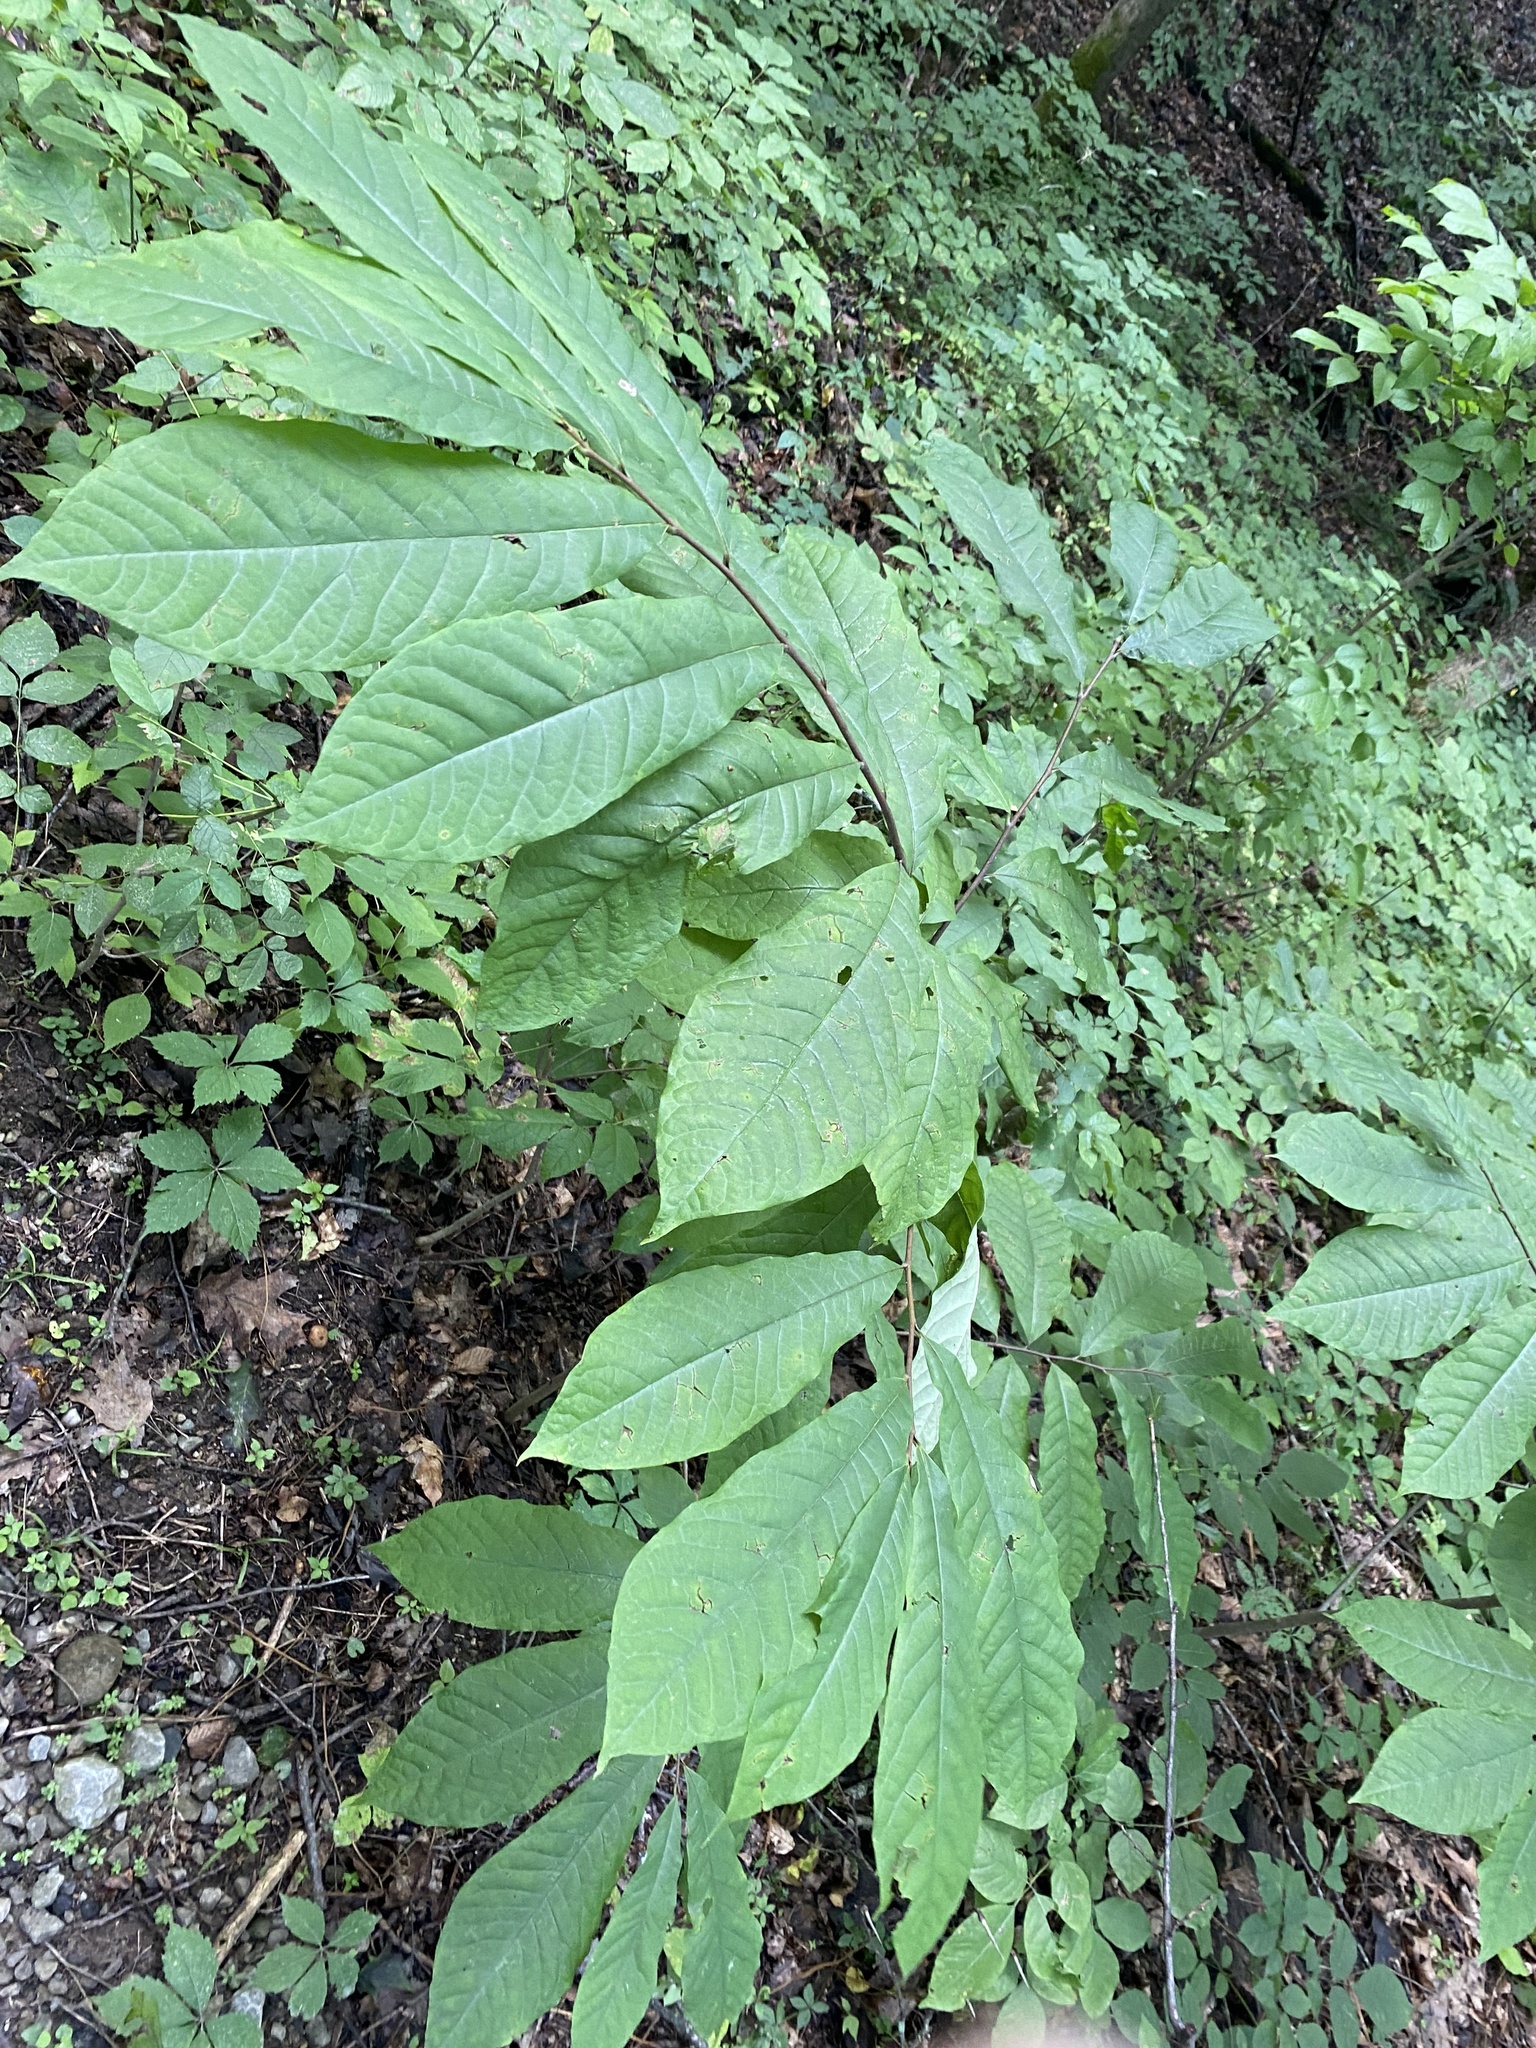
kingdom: Plantae
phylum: Tracheophyta
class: Magnoliopsida
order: Magnoliales
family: Annonaceae
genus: Asimina
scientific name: Asimina triloba
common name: Dog-banana
